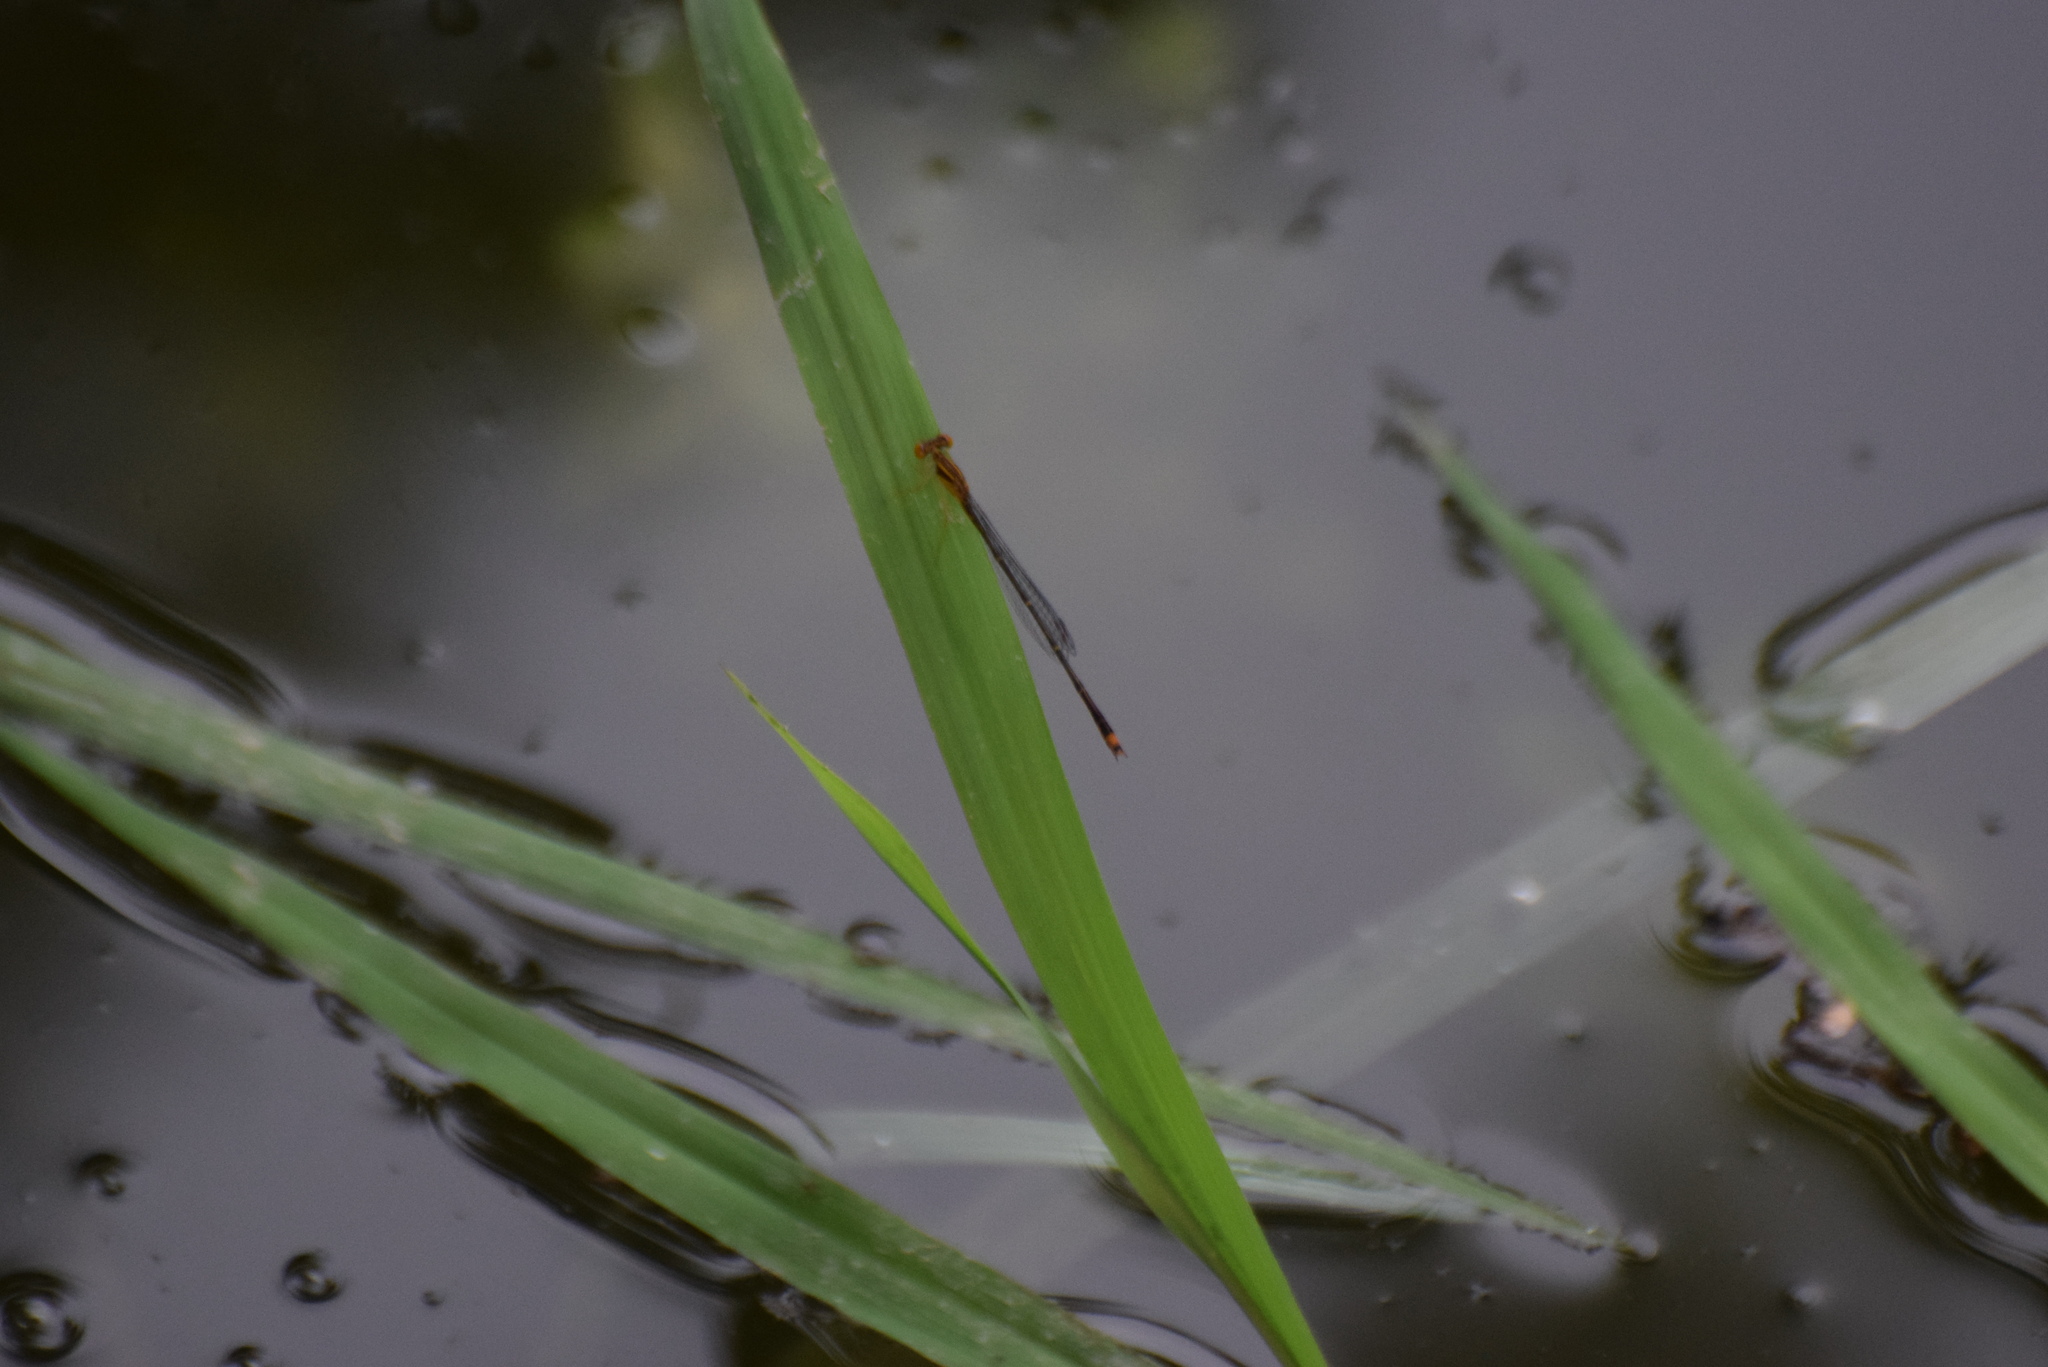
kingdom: Animalia
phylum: Arthropoda
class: Insecta
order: Odonata
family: Coenagrionidae
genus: Enallagma
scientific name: Enallagma signatum
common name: Orange bluet
